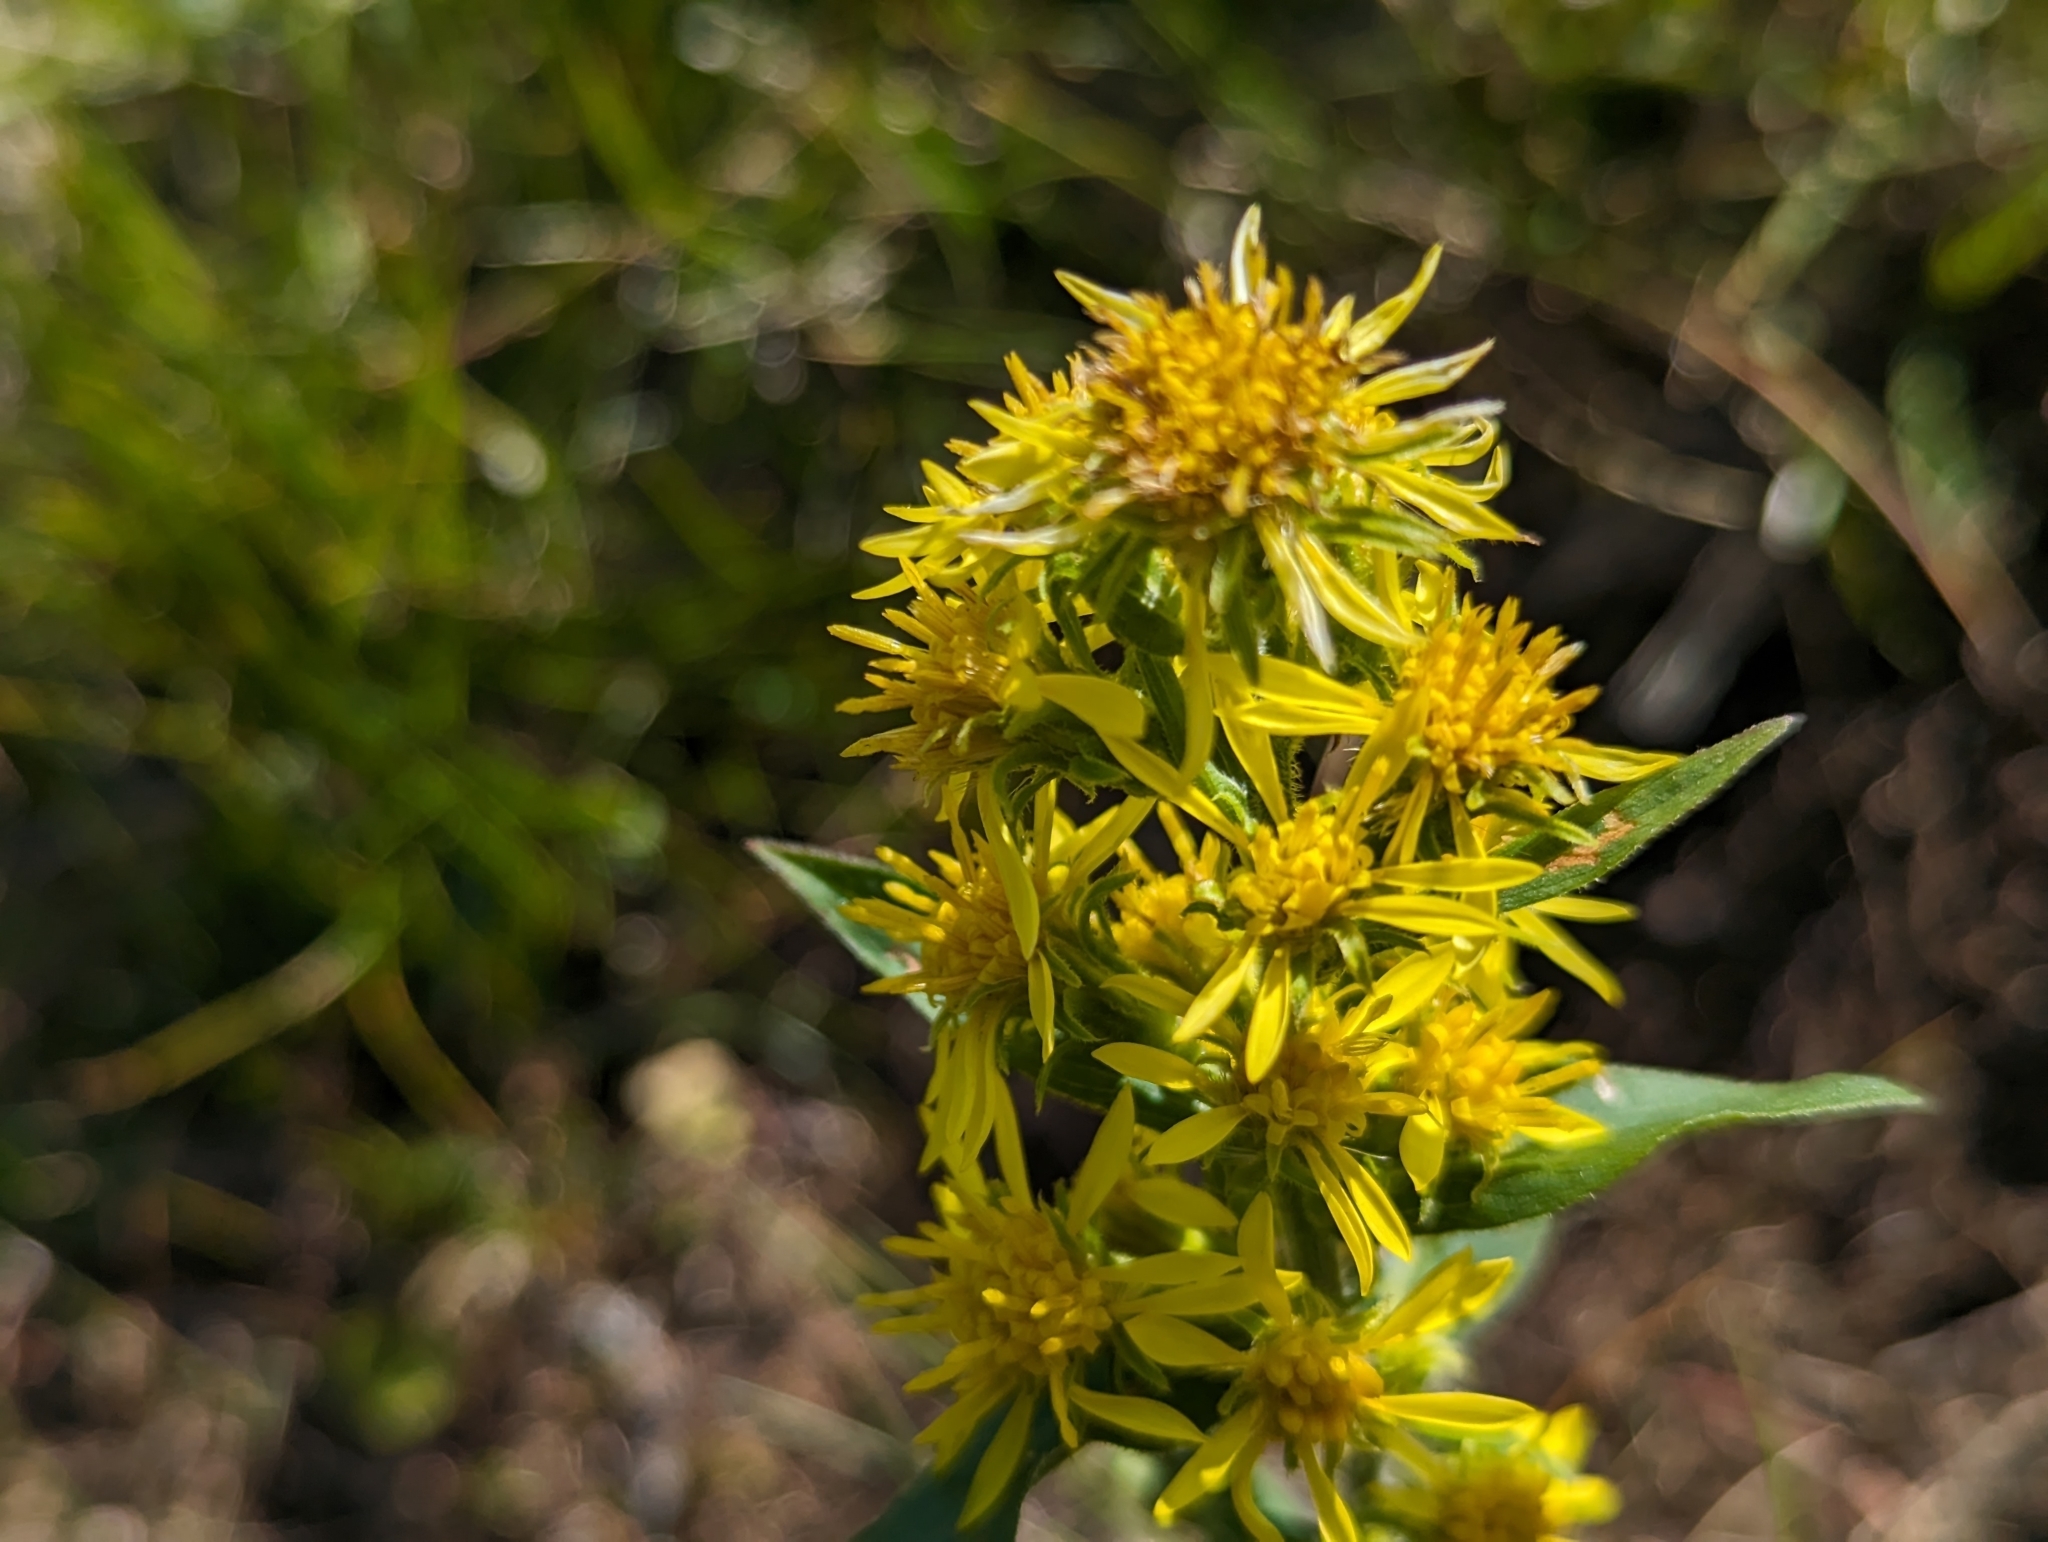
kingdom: Plantae
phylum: Tracheophyta
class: Magnoliopsida
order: Asterales
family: Asteraceae
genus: Solidago
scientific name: Solidago virgaurea
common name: Goldenrod
